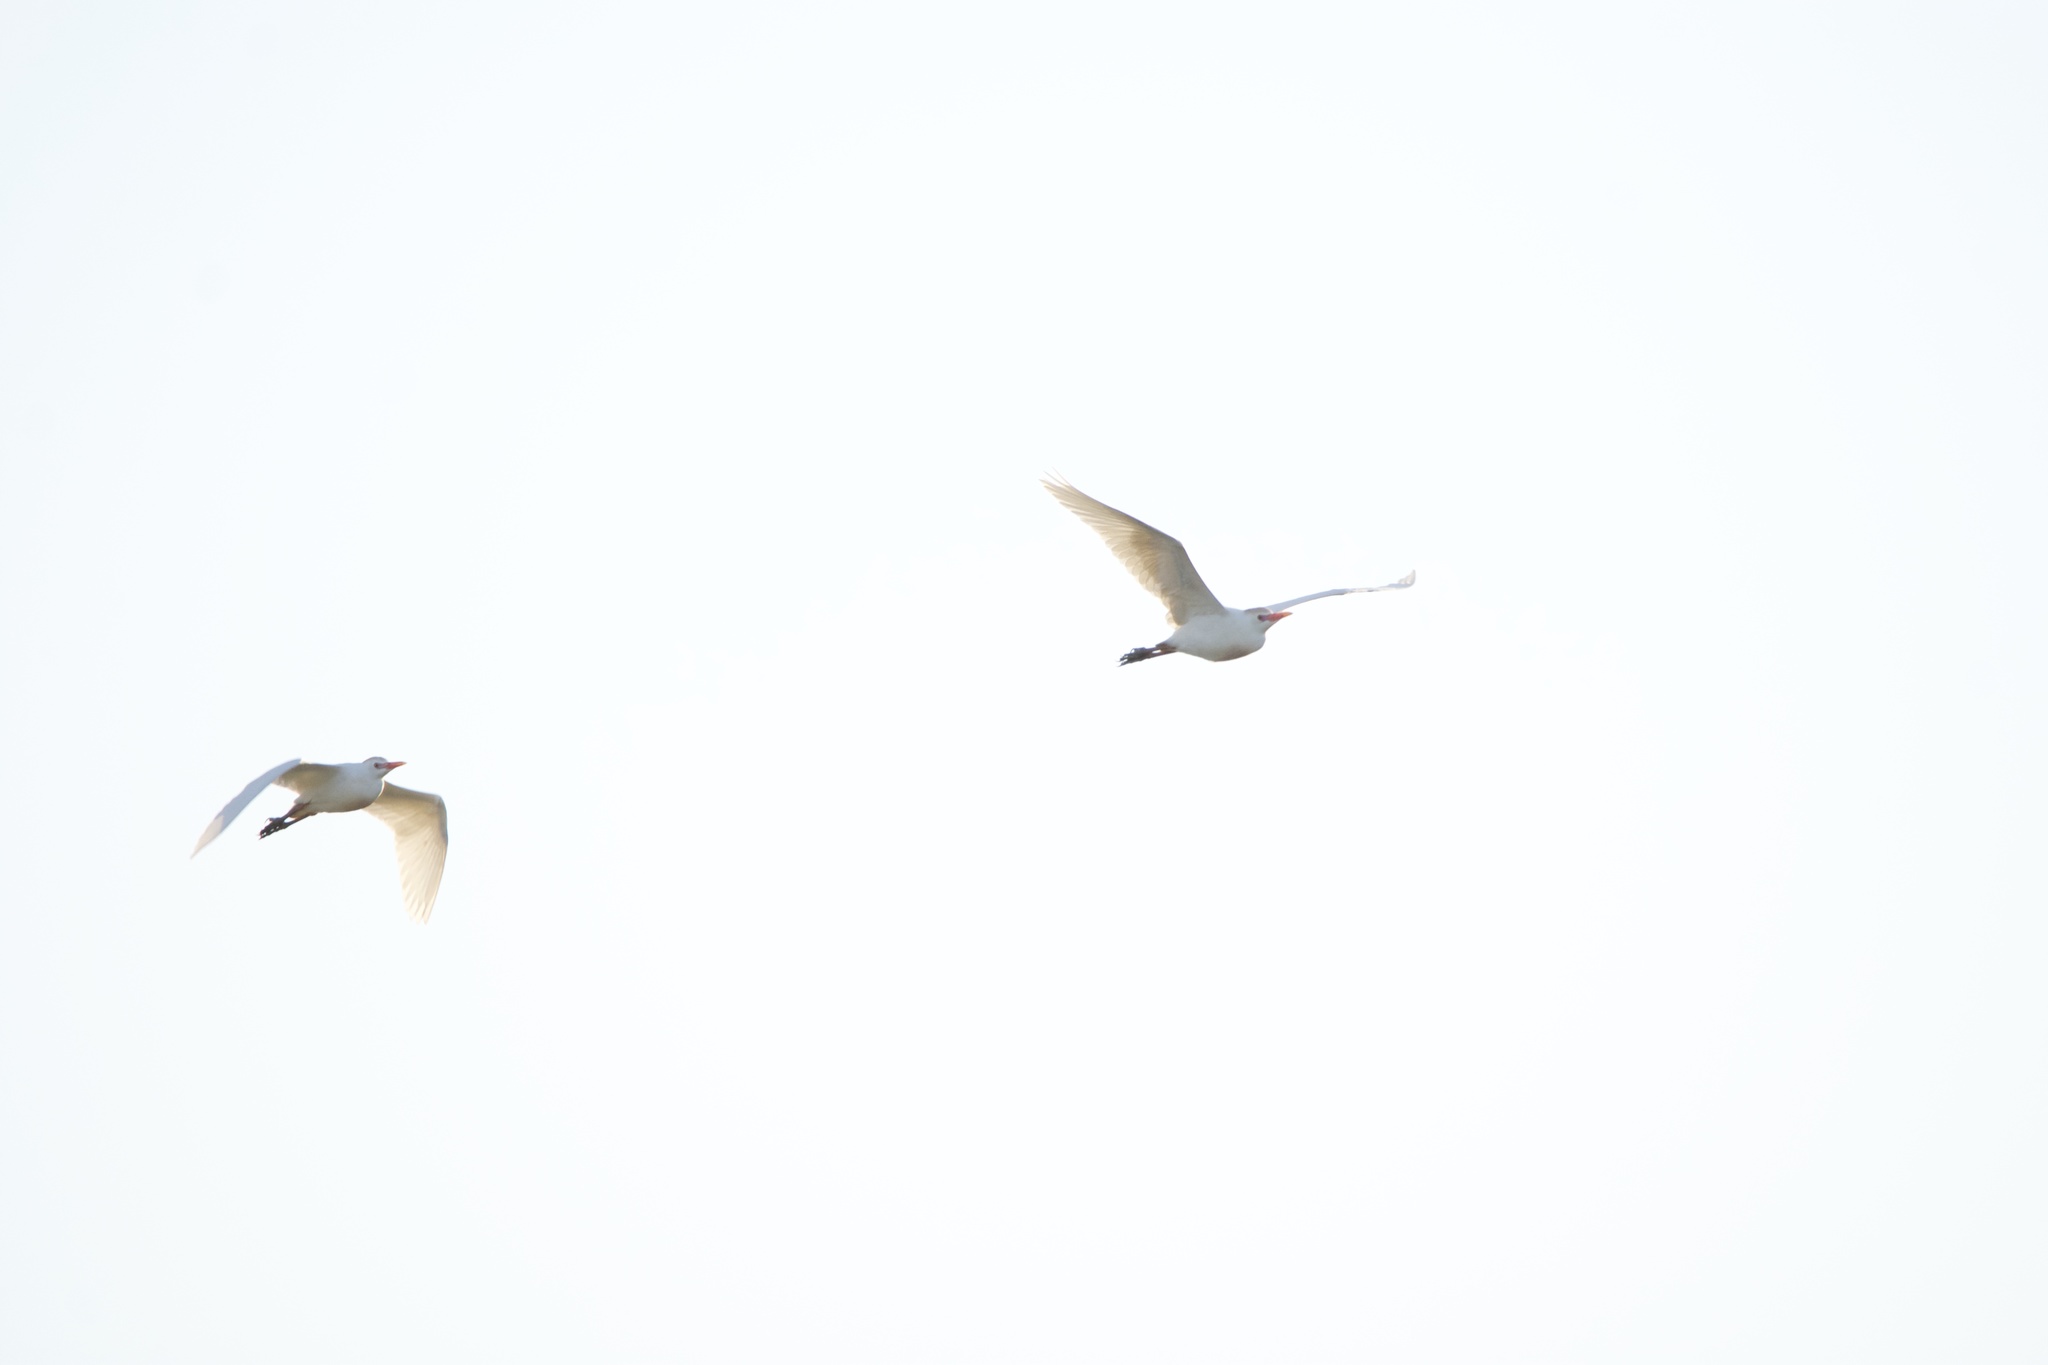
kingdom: Animalia
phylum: Chordata
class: Aves
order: Pelecaniformes
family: Ardeidae
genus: Bubulcus
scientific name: Bubulcus ibis
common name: Cattle egret
